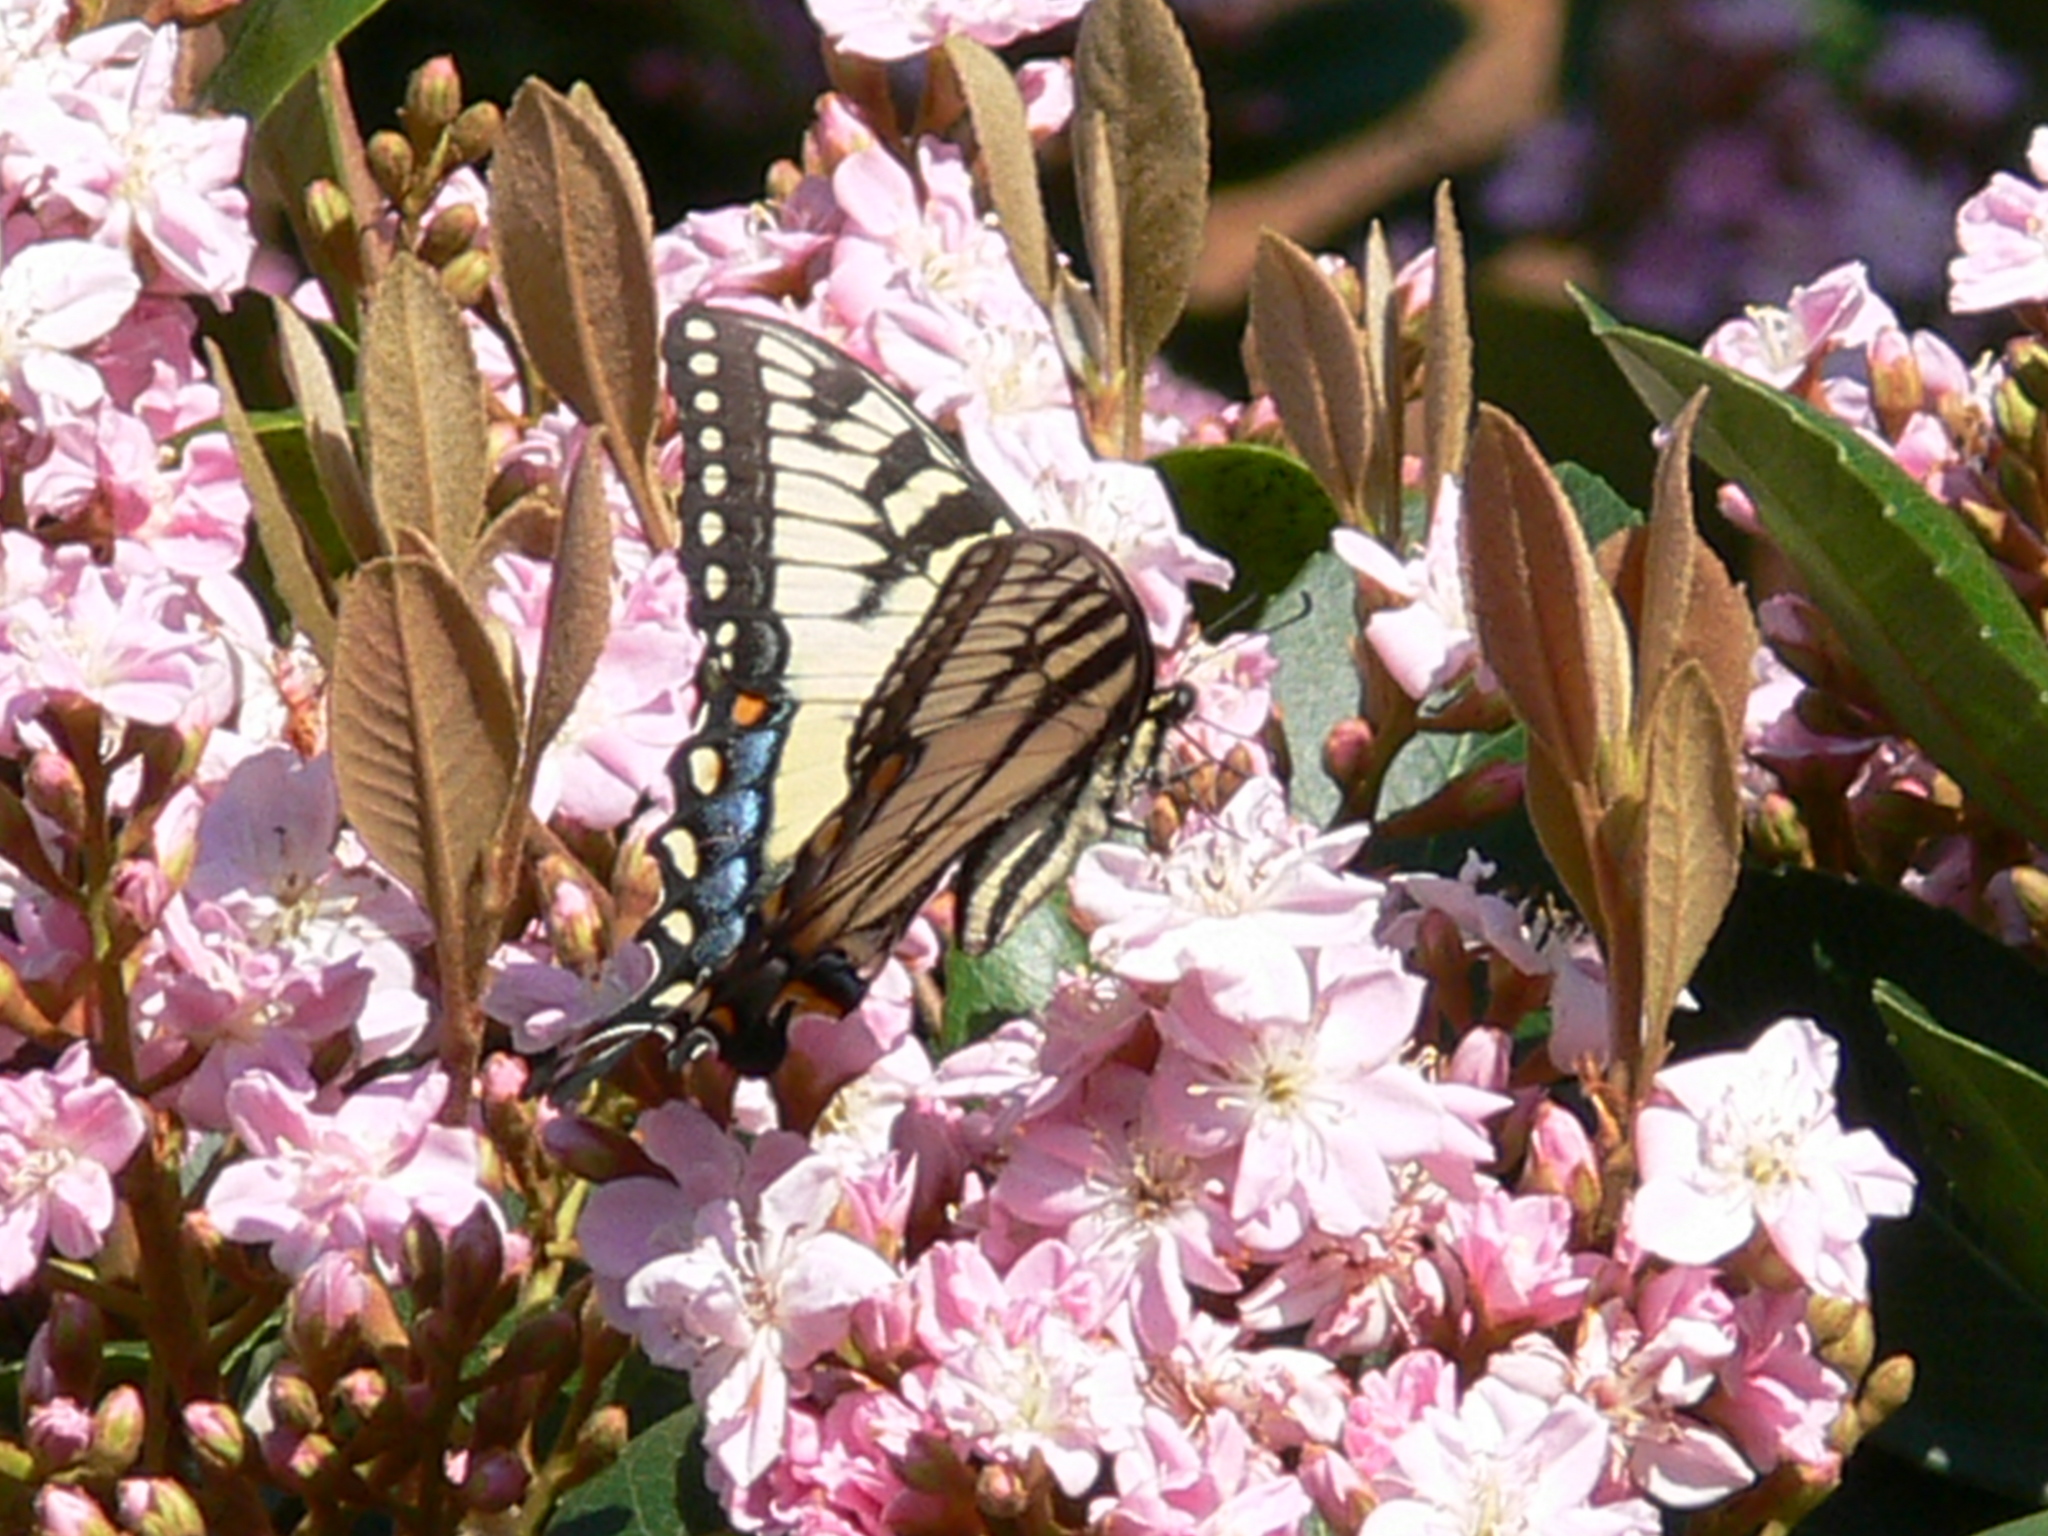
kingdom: Animalia
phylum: Arthropoda
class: Insecta
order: Lepidoptera
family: Papilionidae
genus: Papilio
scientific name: Papilio glaucus
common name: Tiger swallowtail
